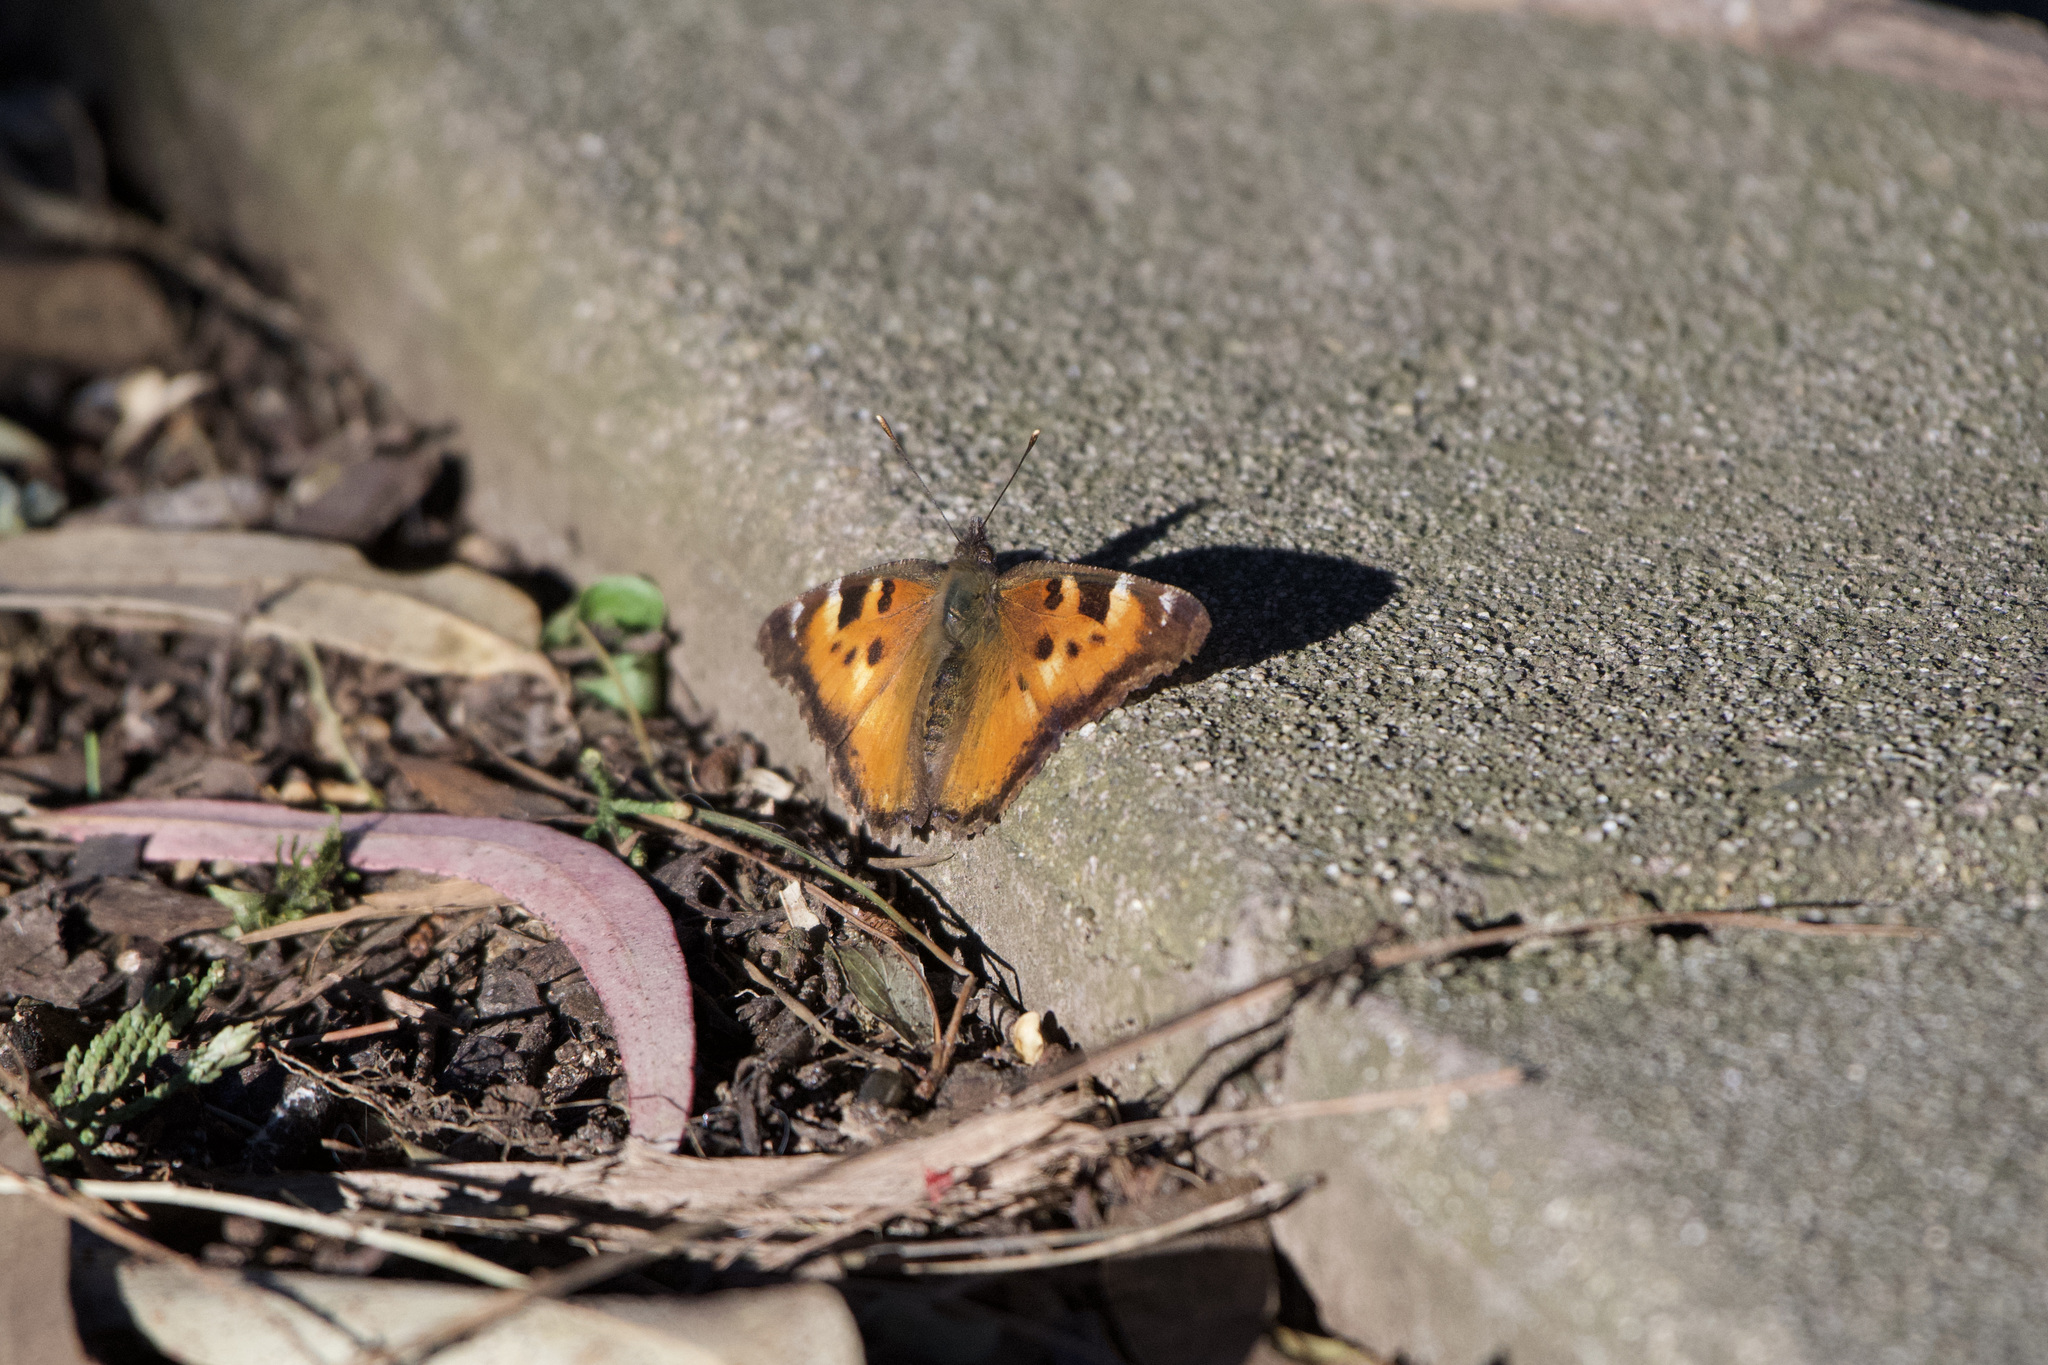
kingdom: Animalia
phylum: Arthropoda
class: Insecta
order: Lepidoptera
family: Nymphalidae
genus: Nymphalis
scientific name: Nymphalis californica
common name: California tortoiseshell
